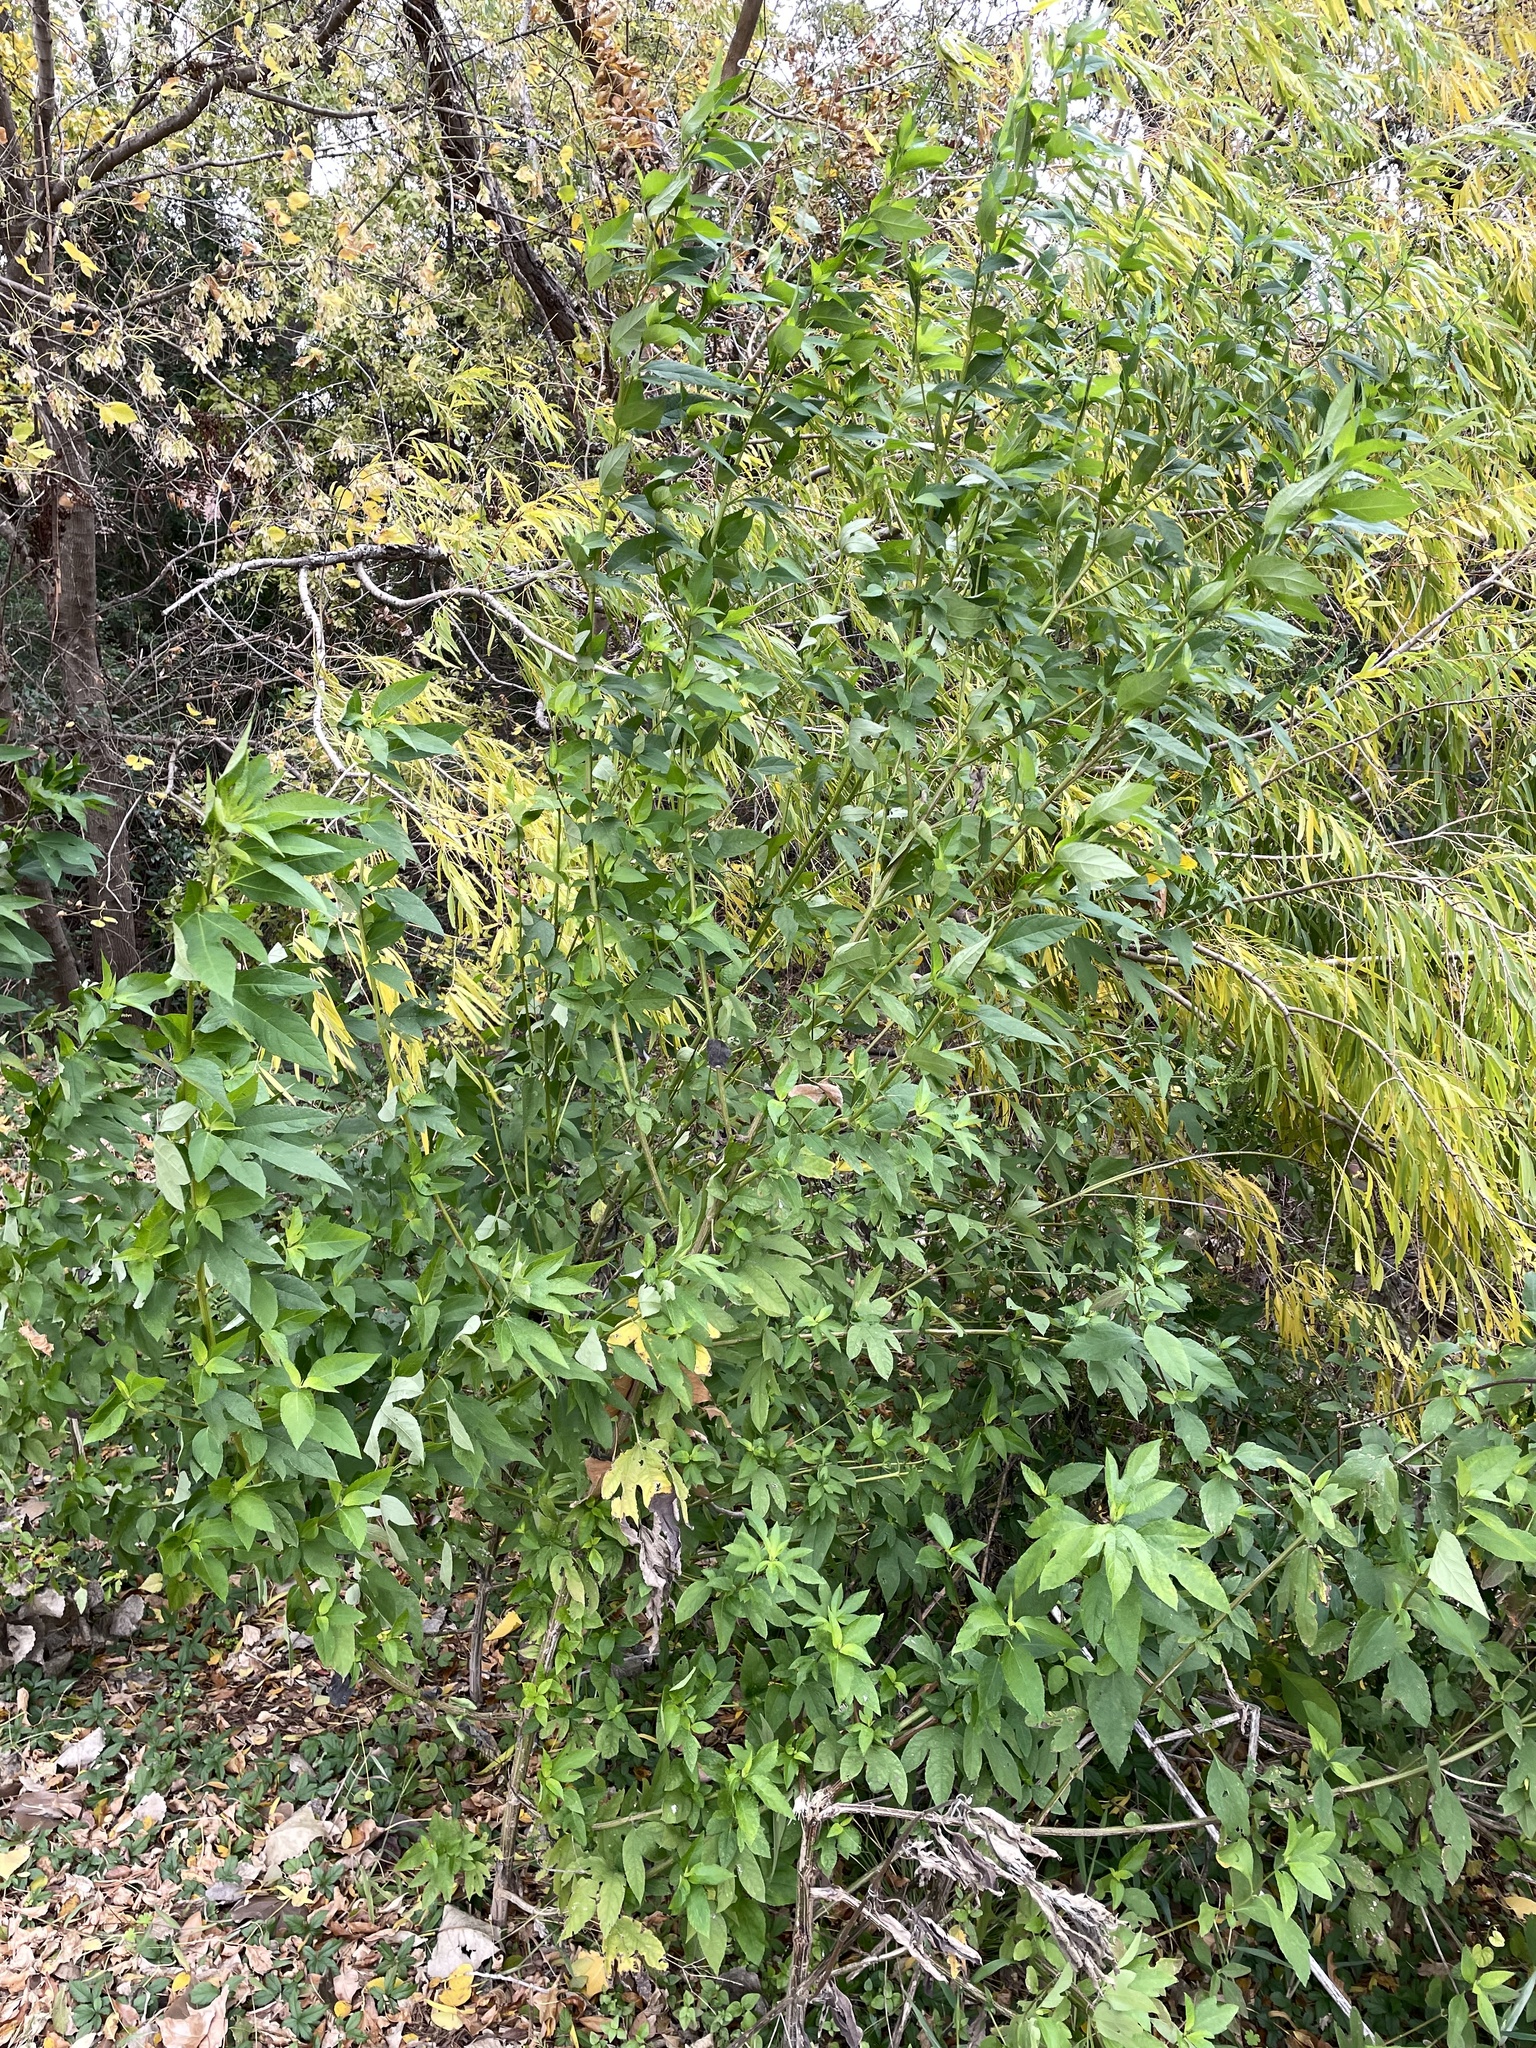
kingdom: Plantae
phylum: Tracheophyta
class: Magnoliopsida
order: Asterales
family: Asteraceae
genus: Ambrosia
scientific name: Ambrosia trifida
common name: Giant ragweed
